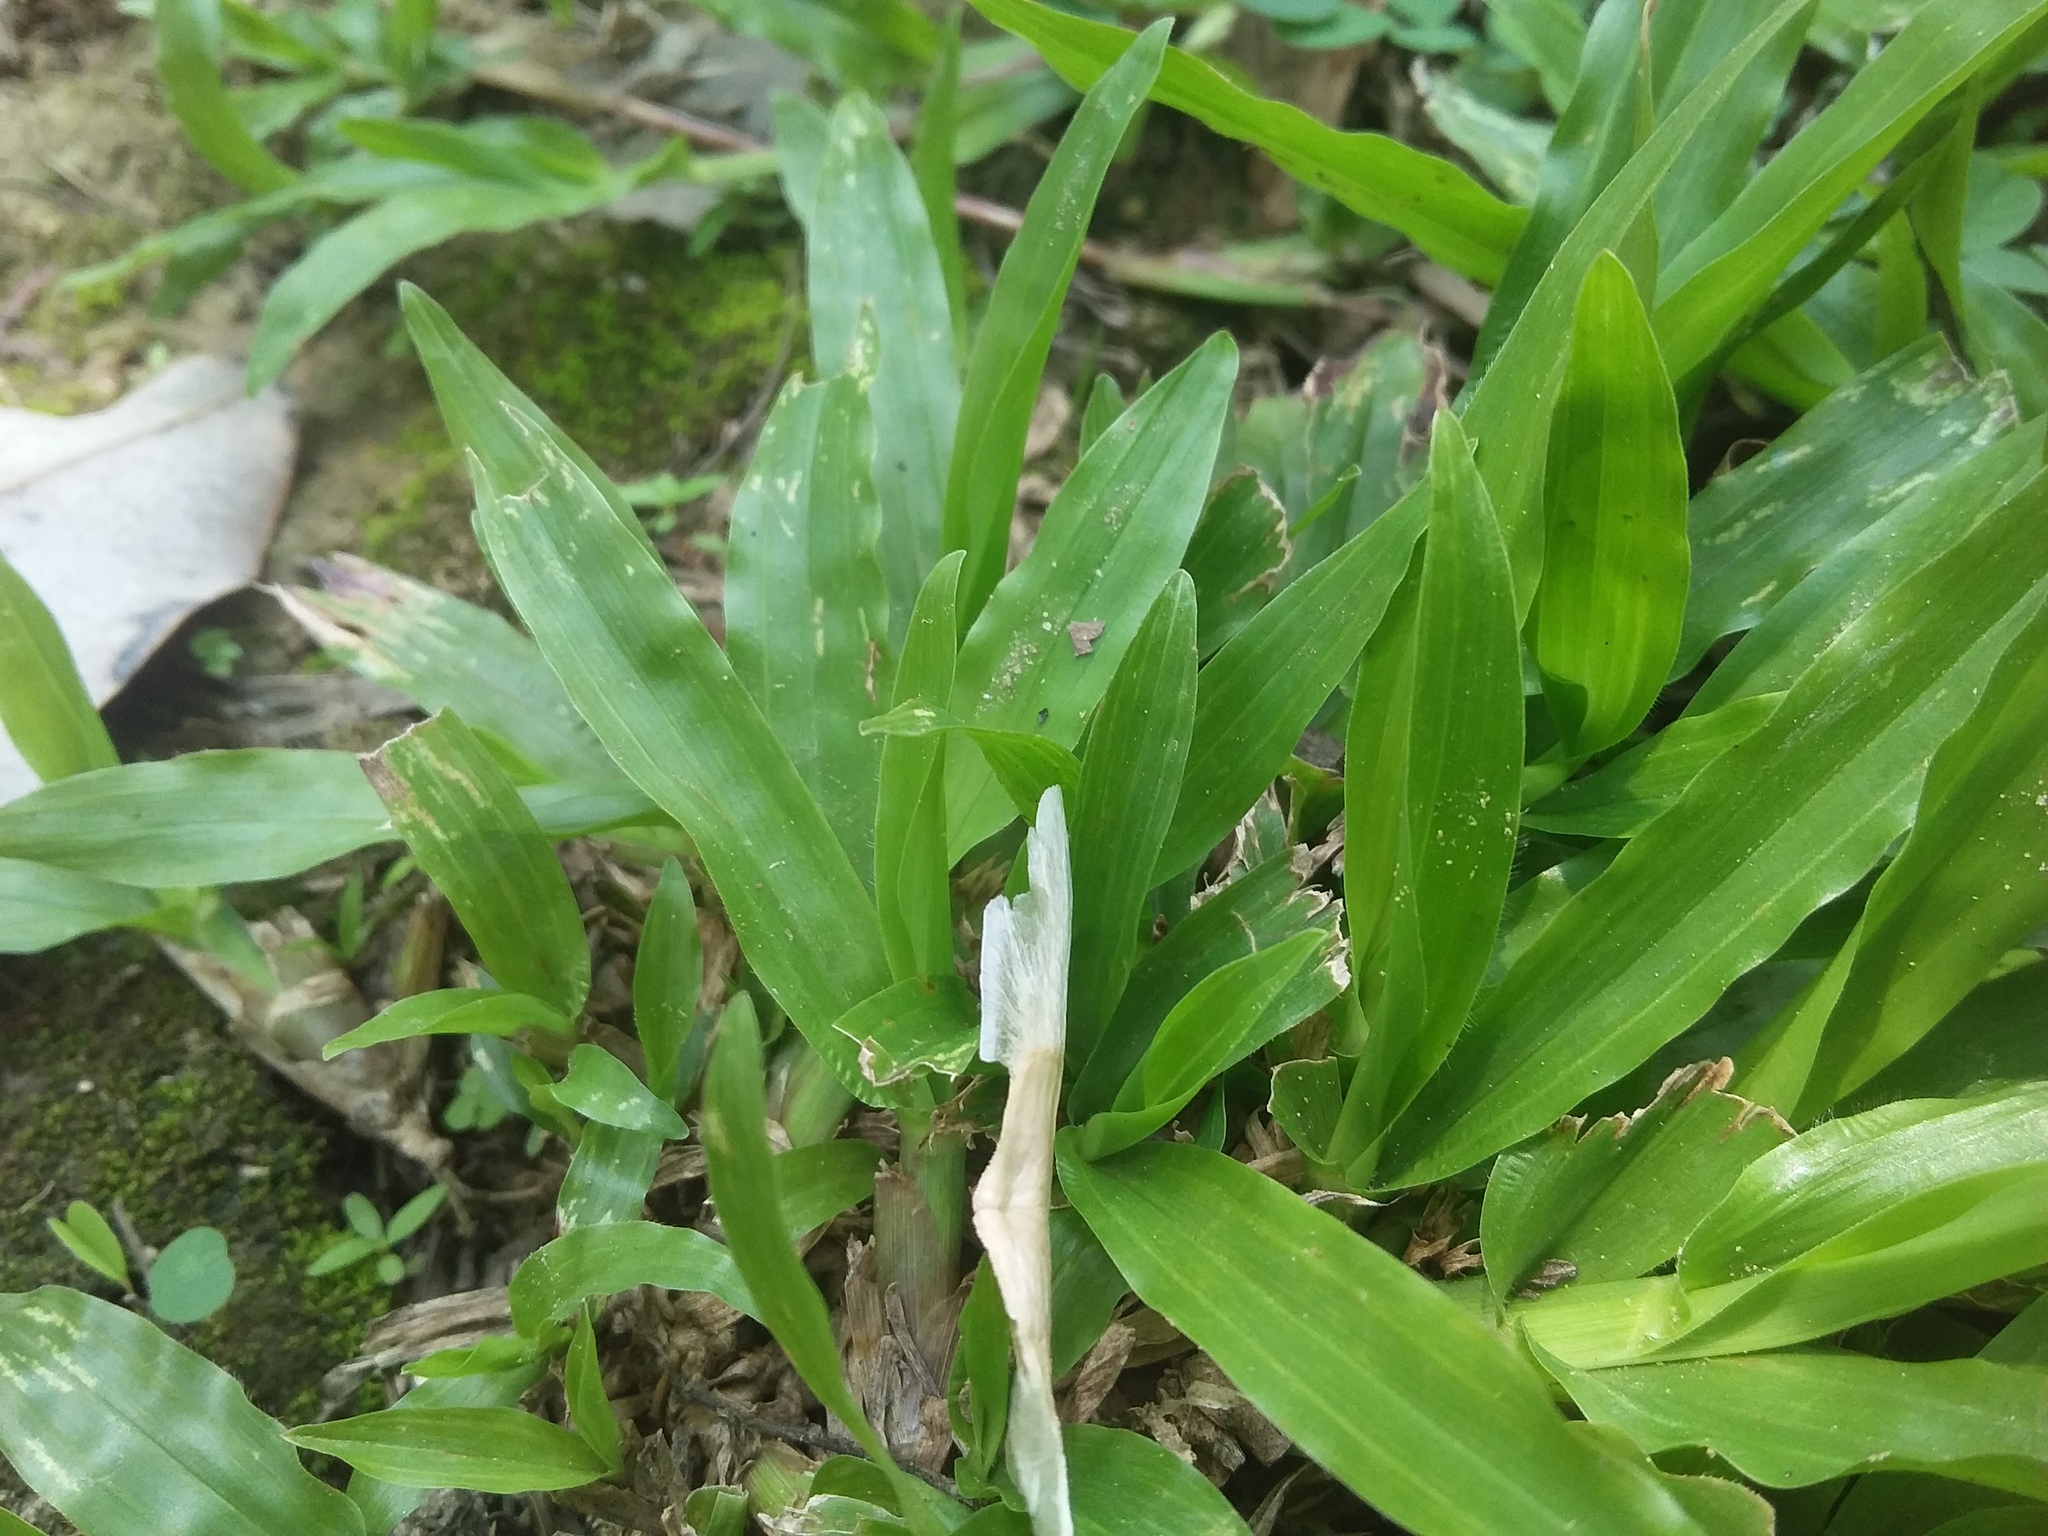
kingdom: Plantae
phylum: Tracheophyta
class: Liliopsida
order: Poales
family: Poaceae
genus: Axonopus
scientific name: Axonopus compressus
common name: American carpet grass
